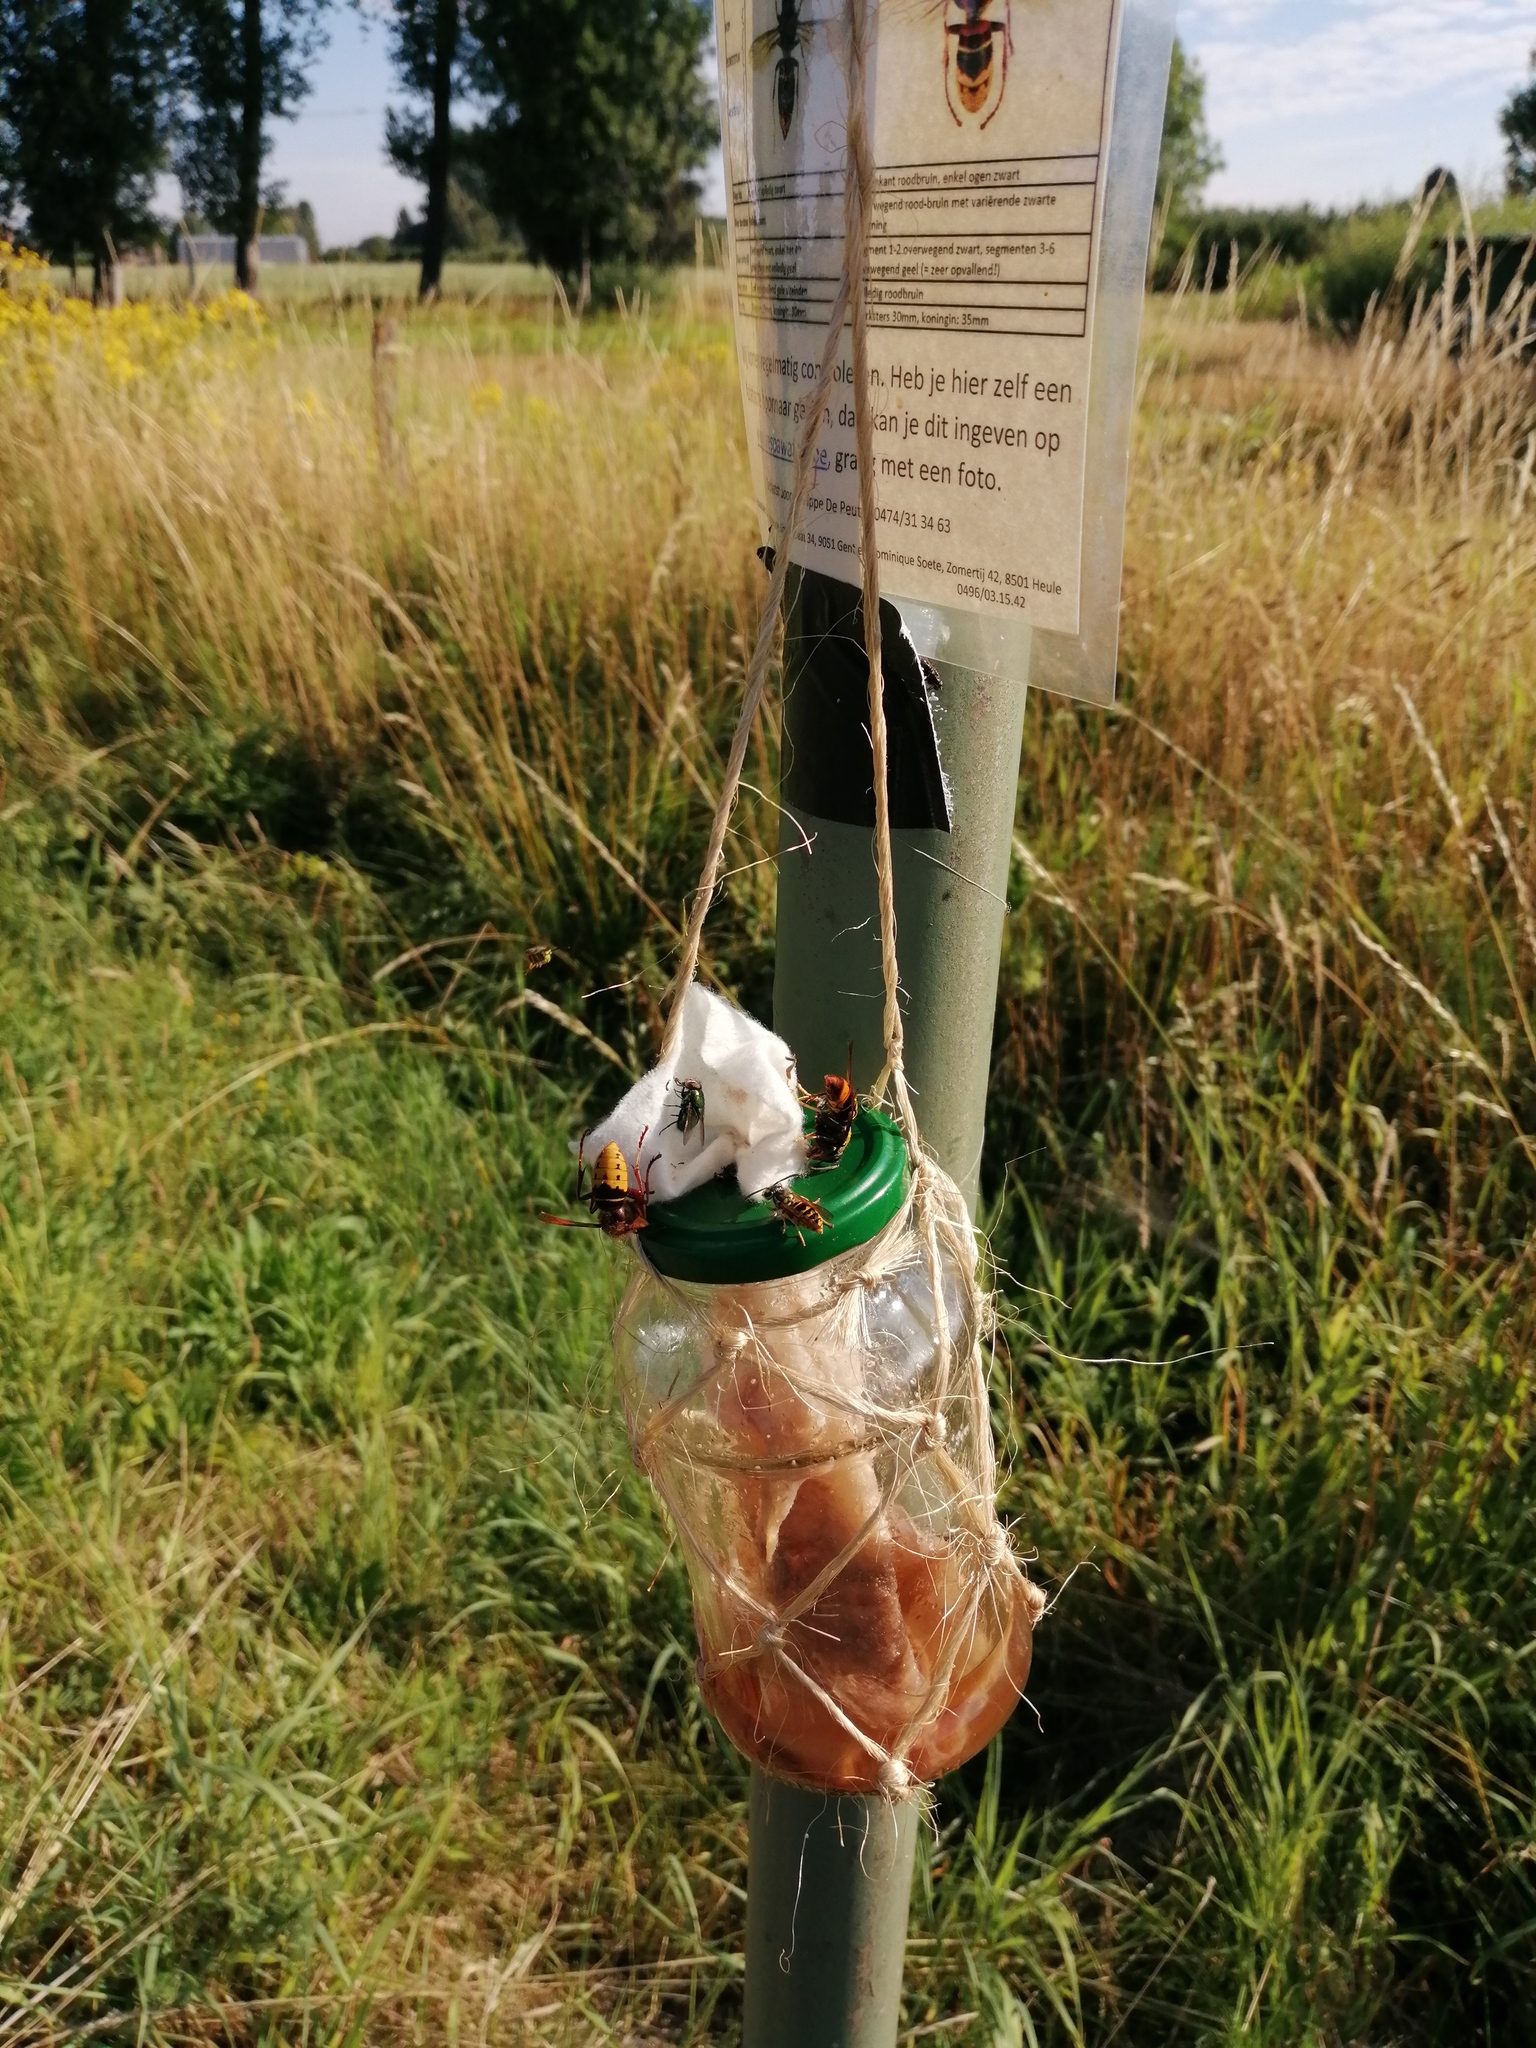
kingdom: Animalia
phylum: Arthropoda
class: Insecta
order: Hymenoptera
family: Vespidae
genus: Vespa
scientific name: Vespa velutina
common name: Asian hornet
